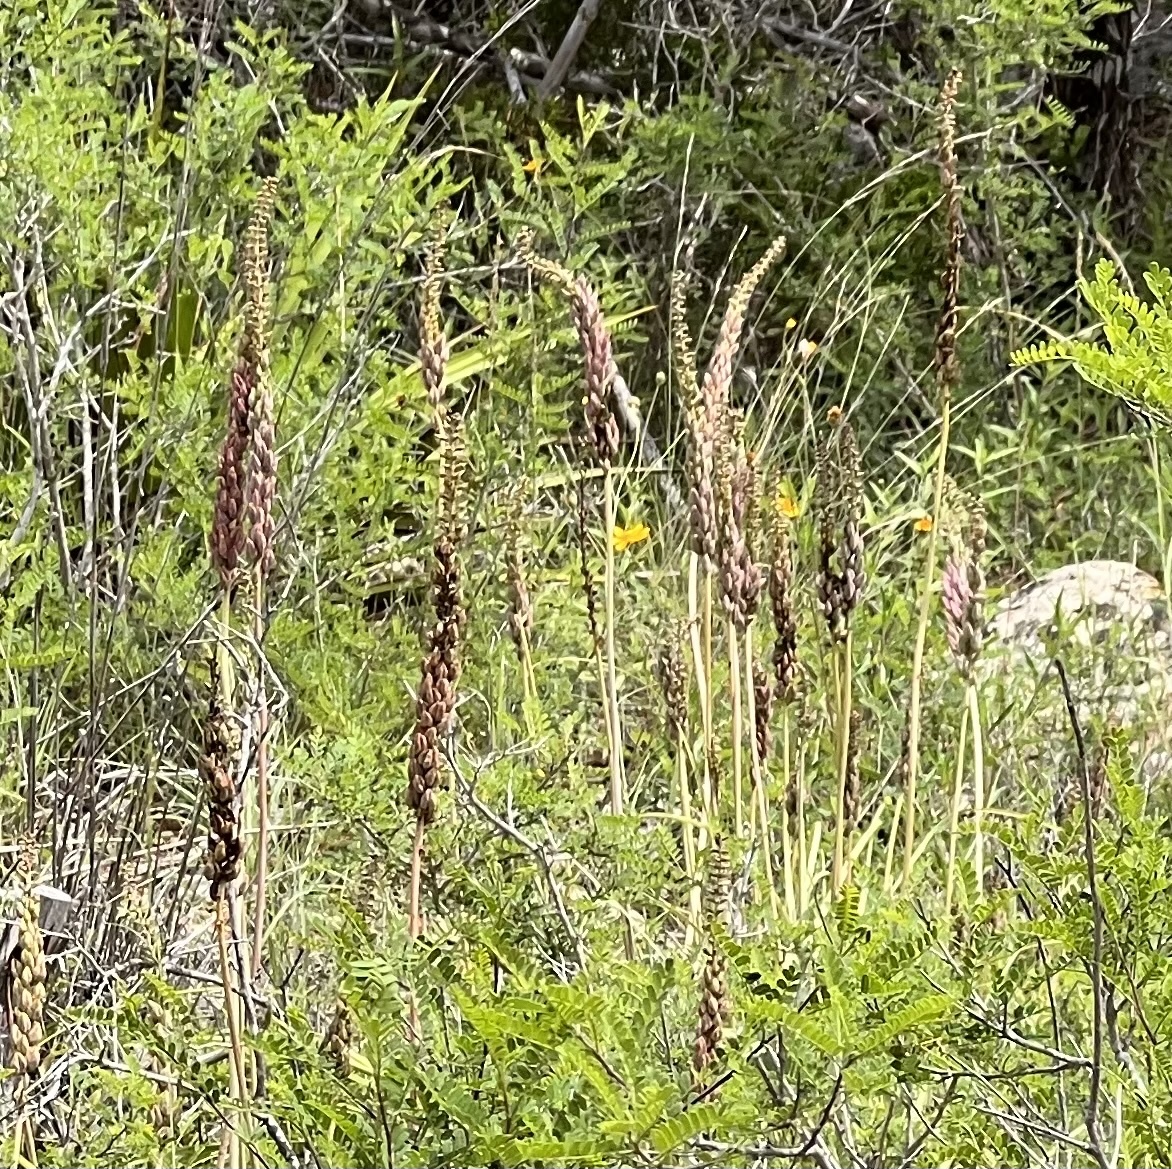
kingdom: Plantae
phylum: Tracheophyta
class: Liliopsida
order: Liliales
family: Melanthiaceae
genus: Schoenocaulon
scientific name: Schoenocaulon texanum
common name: Texas feather-shank
